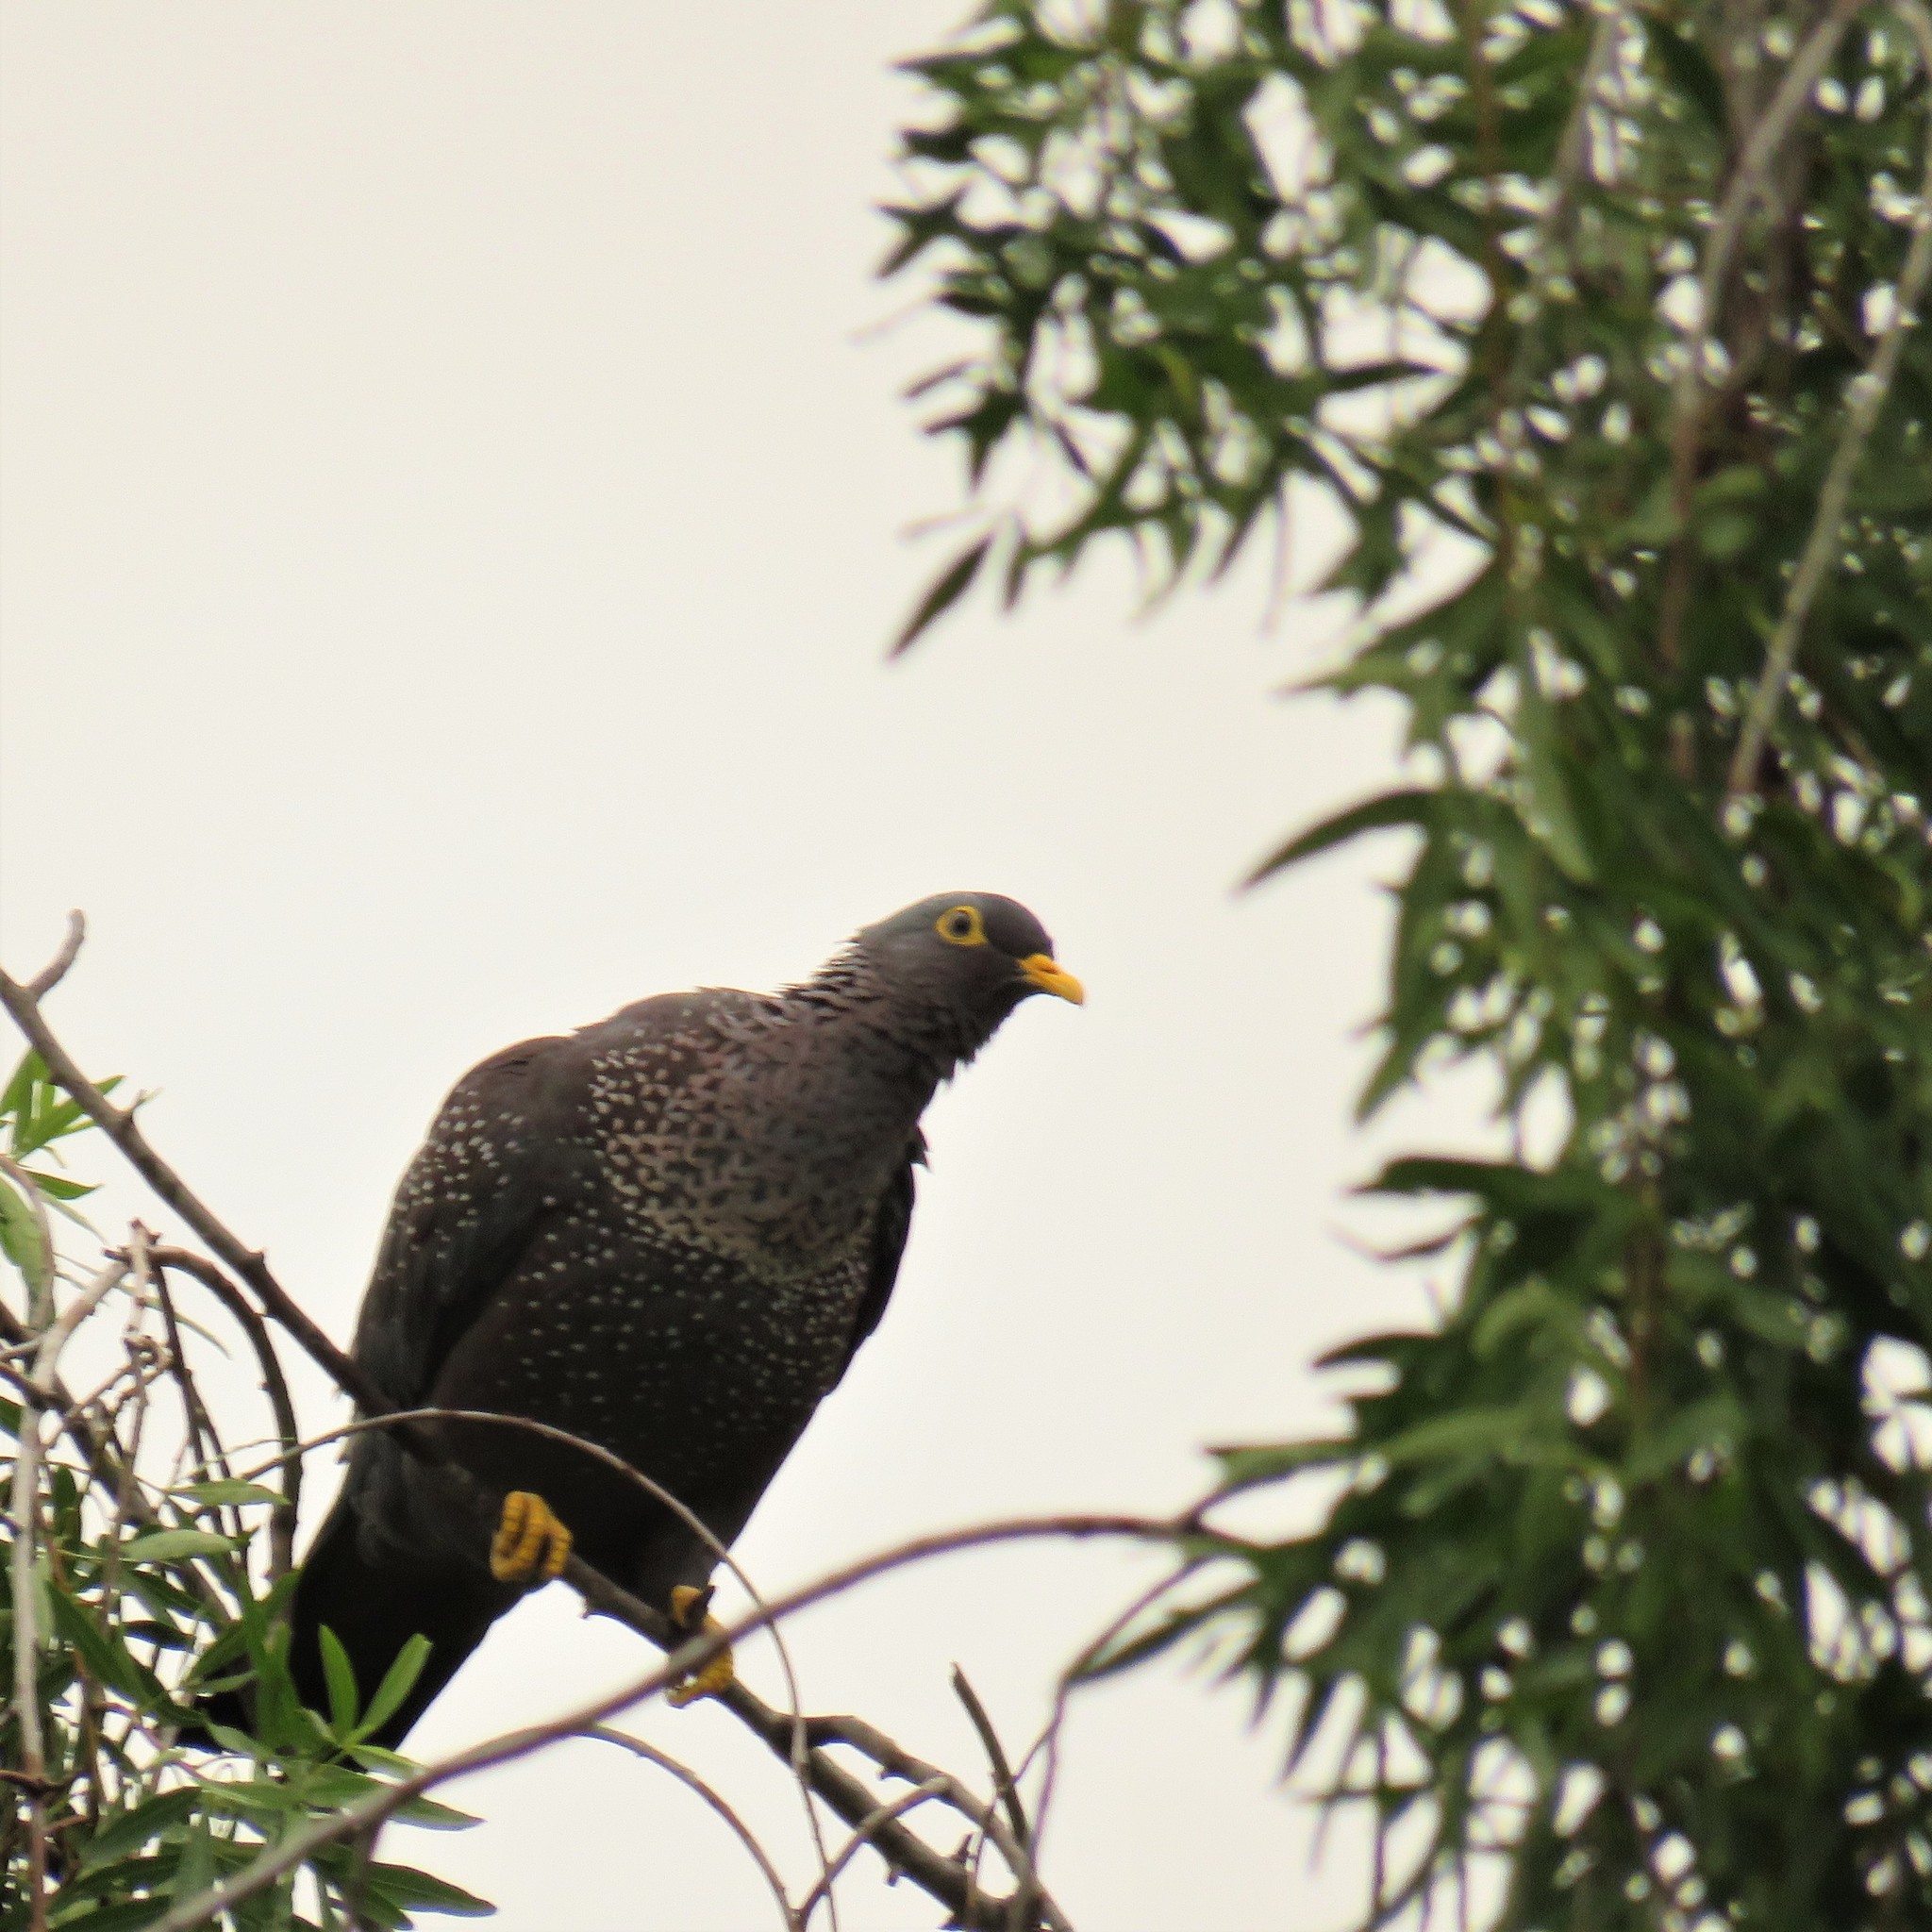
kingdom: Animalia
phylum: Chordata
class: Aves
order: Columbiformes
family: Columbidae
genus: Columba
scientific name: Columba arquatrix
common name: African olive pigeon
